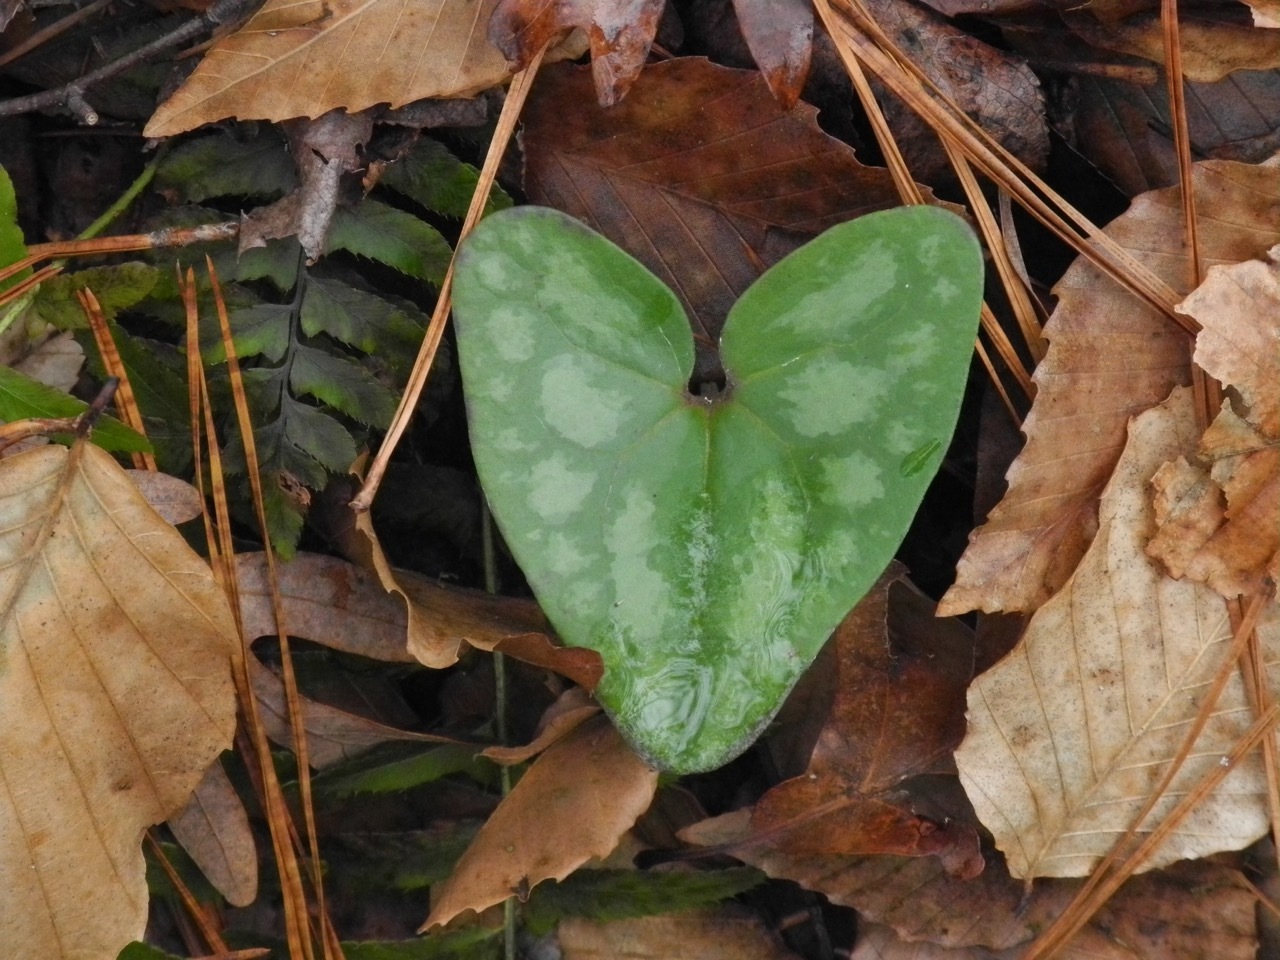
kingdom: Plantae
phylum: Tracheophyta
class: Magnoliopsida
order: Piperales
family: Aristolochiaceae
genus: Hexastylis
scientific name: Hexastylis arifolia
